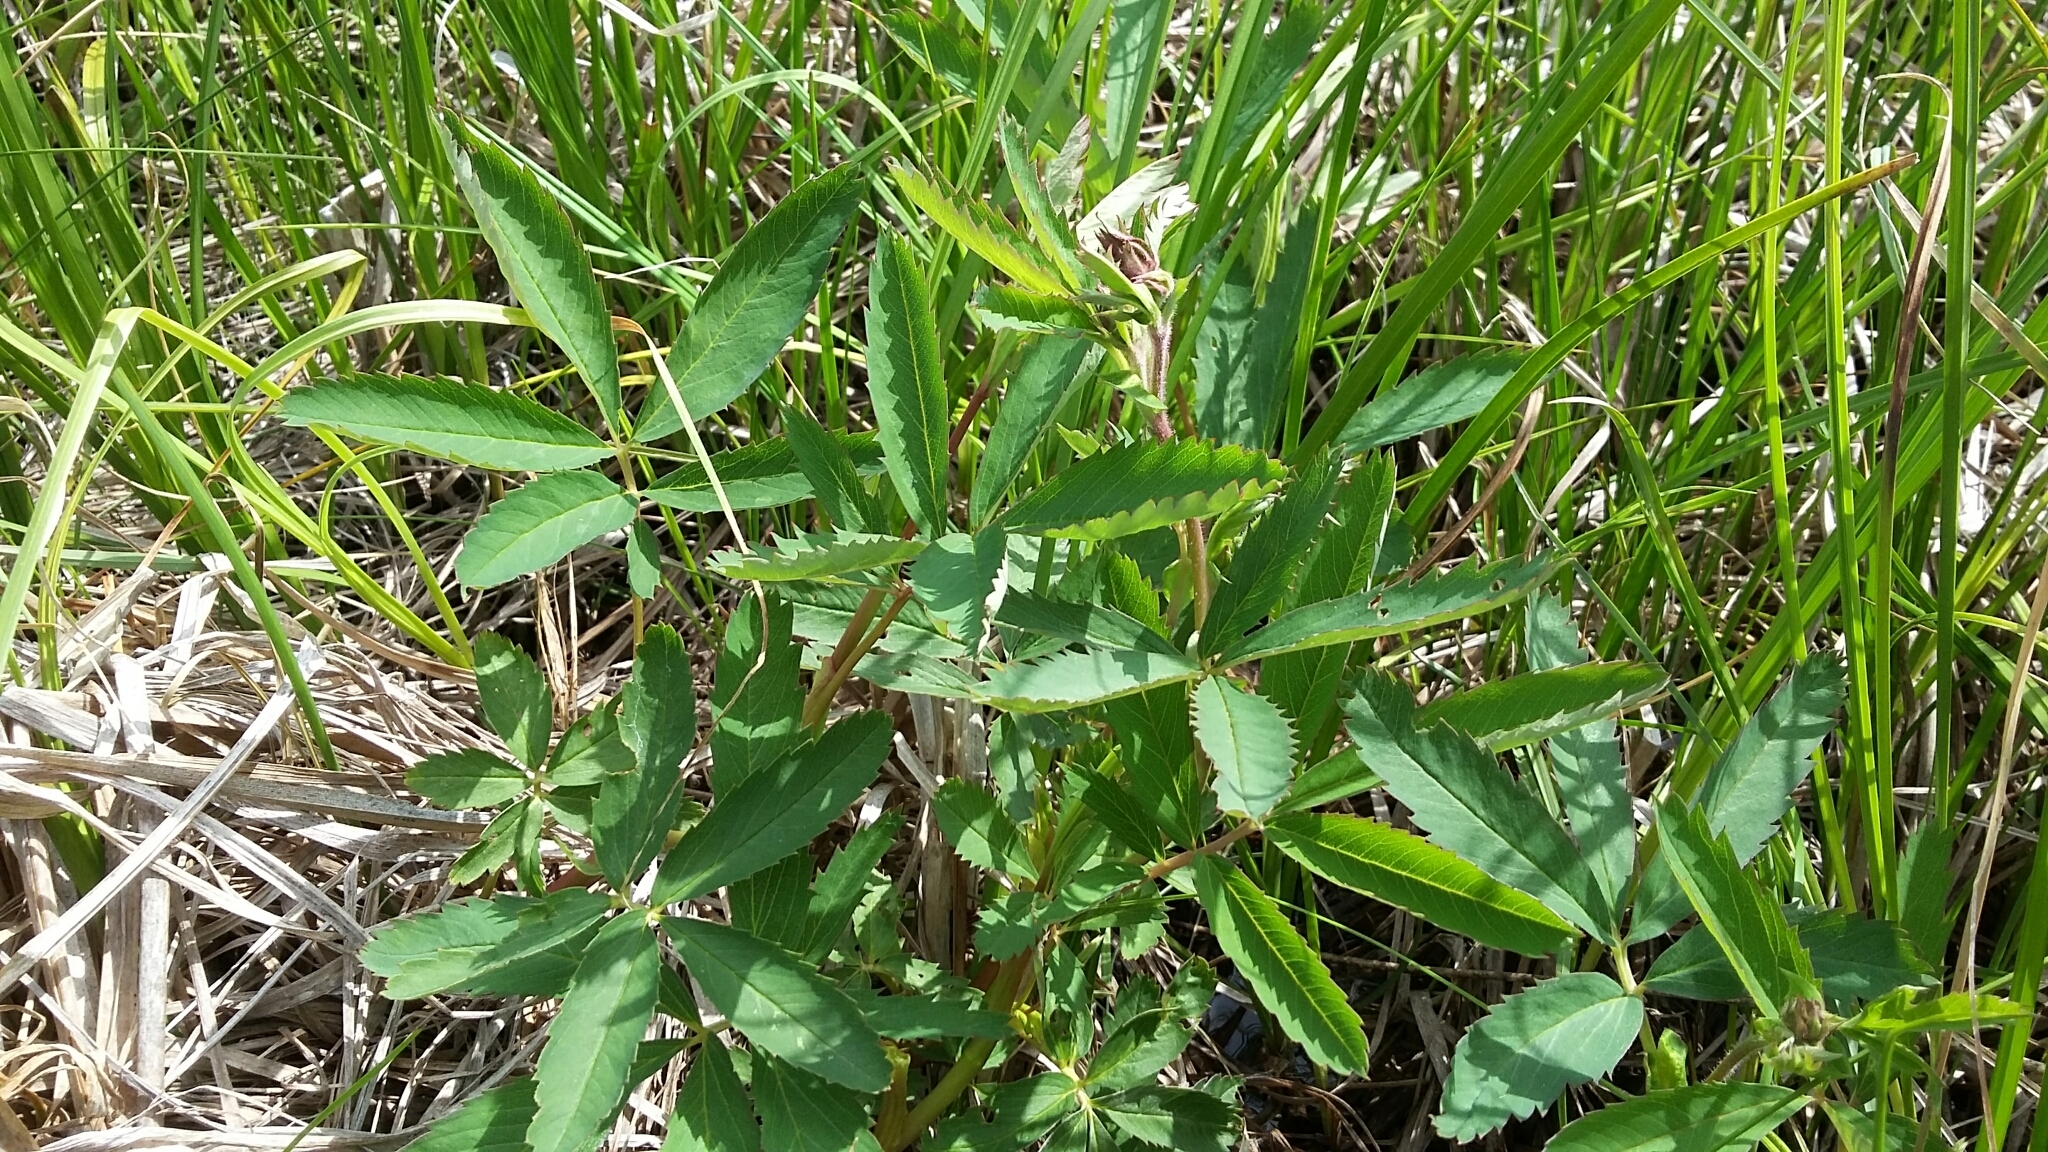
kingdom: Plantae
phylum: Tracheophyta
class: Magnoliopsida
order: Rosales
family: Rosaceae
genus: Comarum
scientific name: Comarum palustre
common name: Marsh cinquefoil
